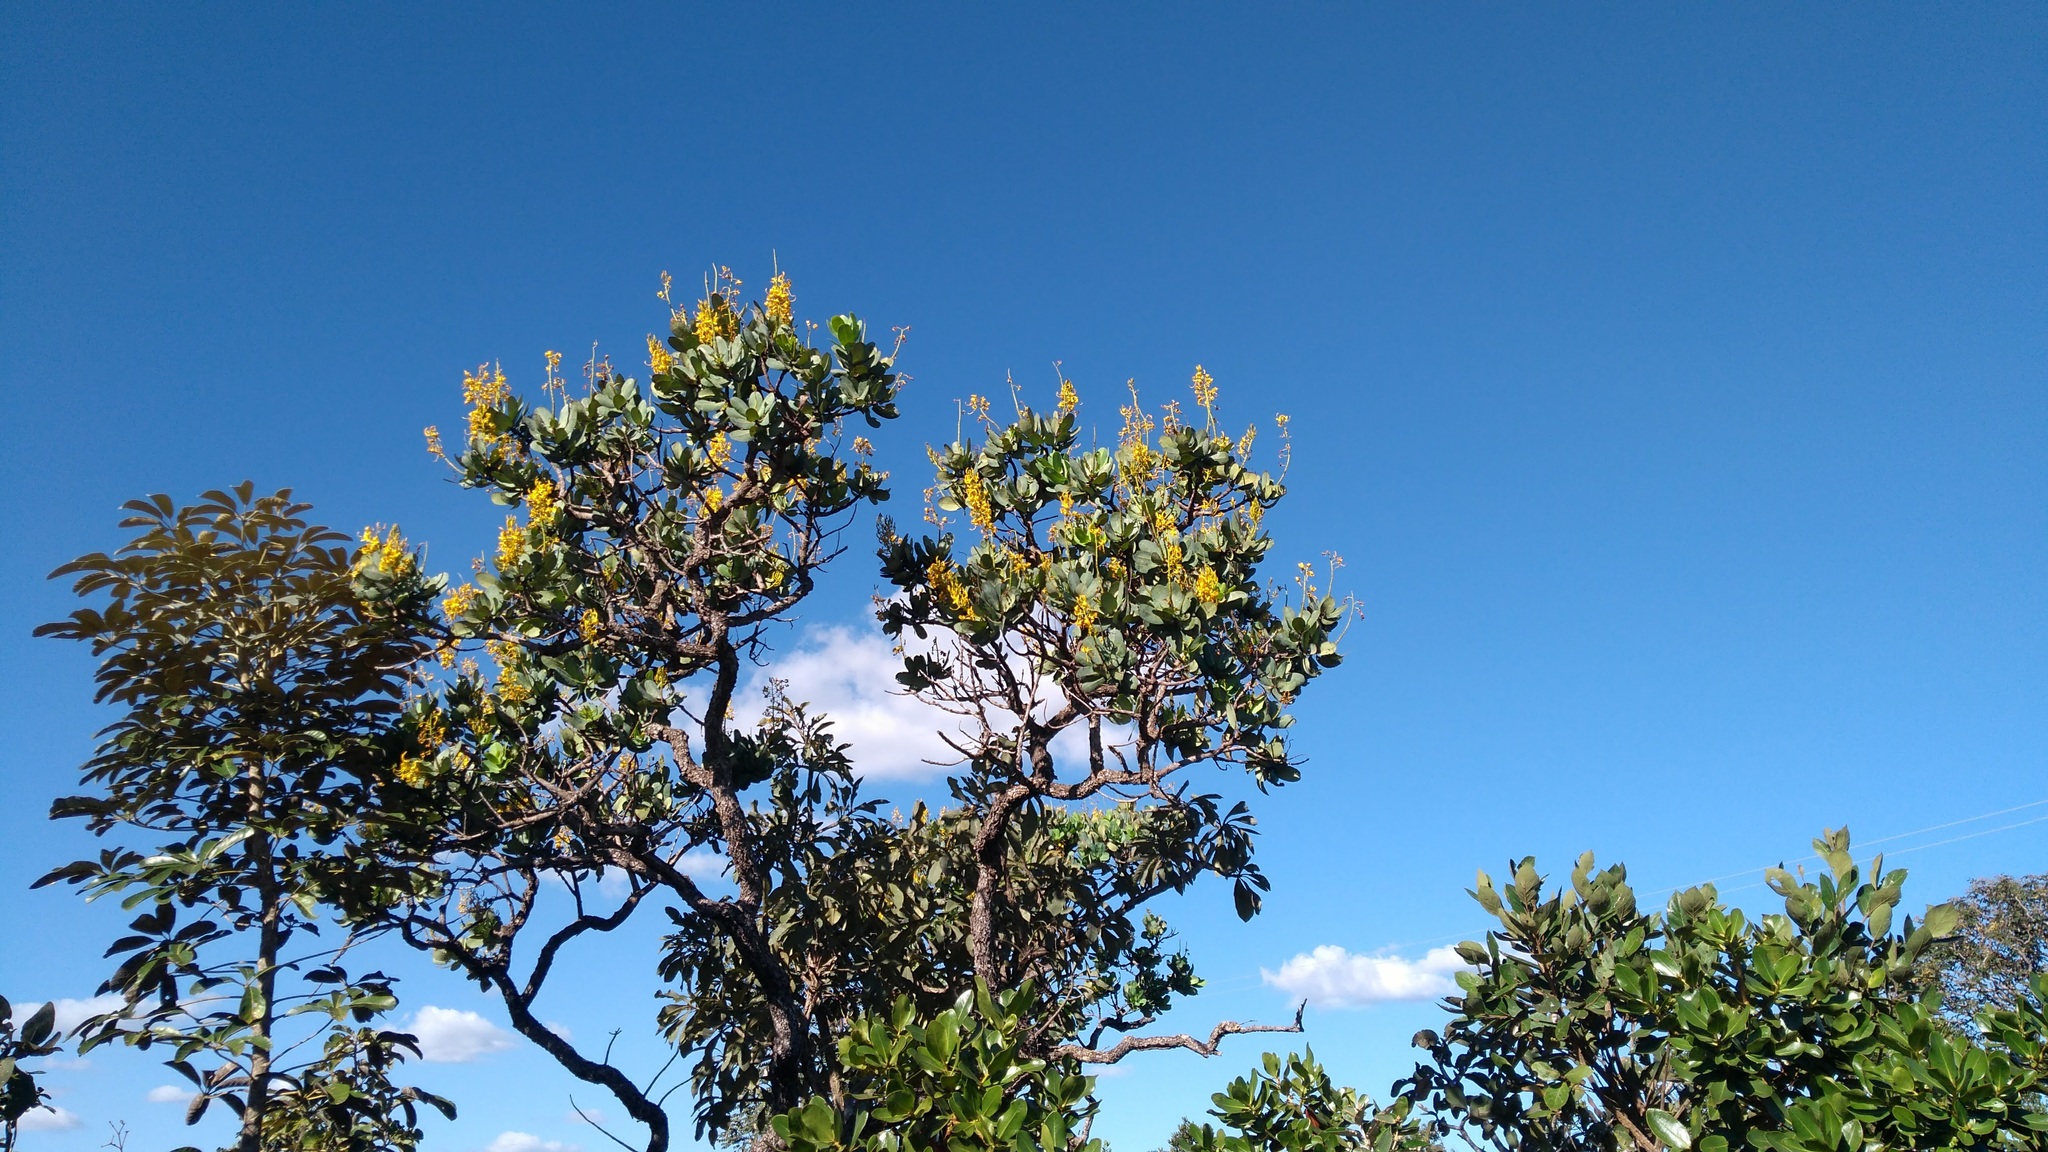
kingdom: Plantae
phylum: Tracheophyta
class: Magnoliopsida
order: Myrtales
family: Vochysiaceae
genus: Vochysia
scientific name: Vochysia elliptica
